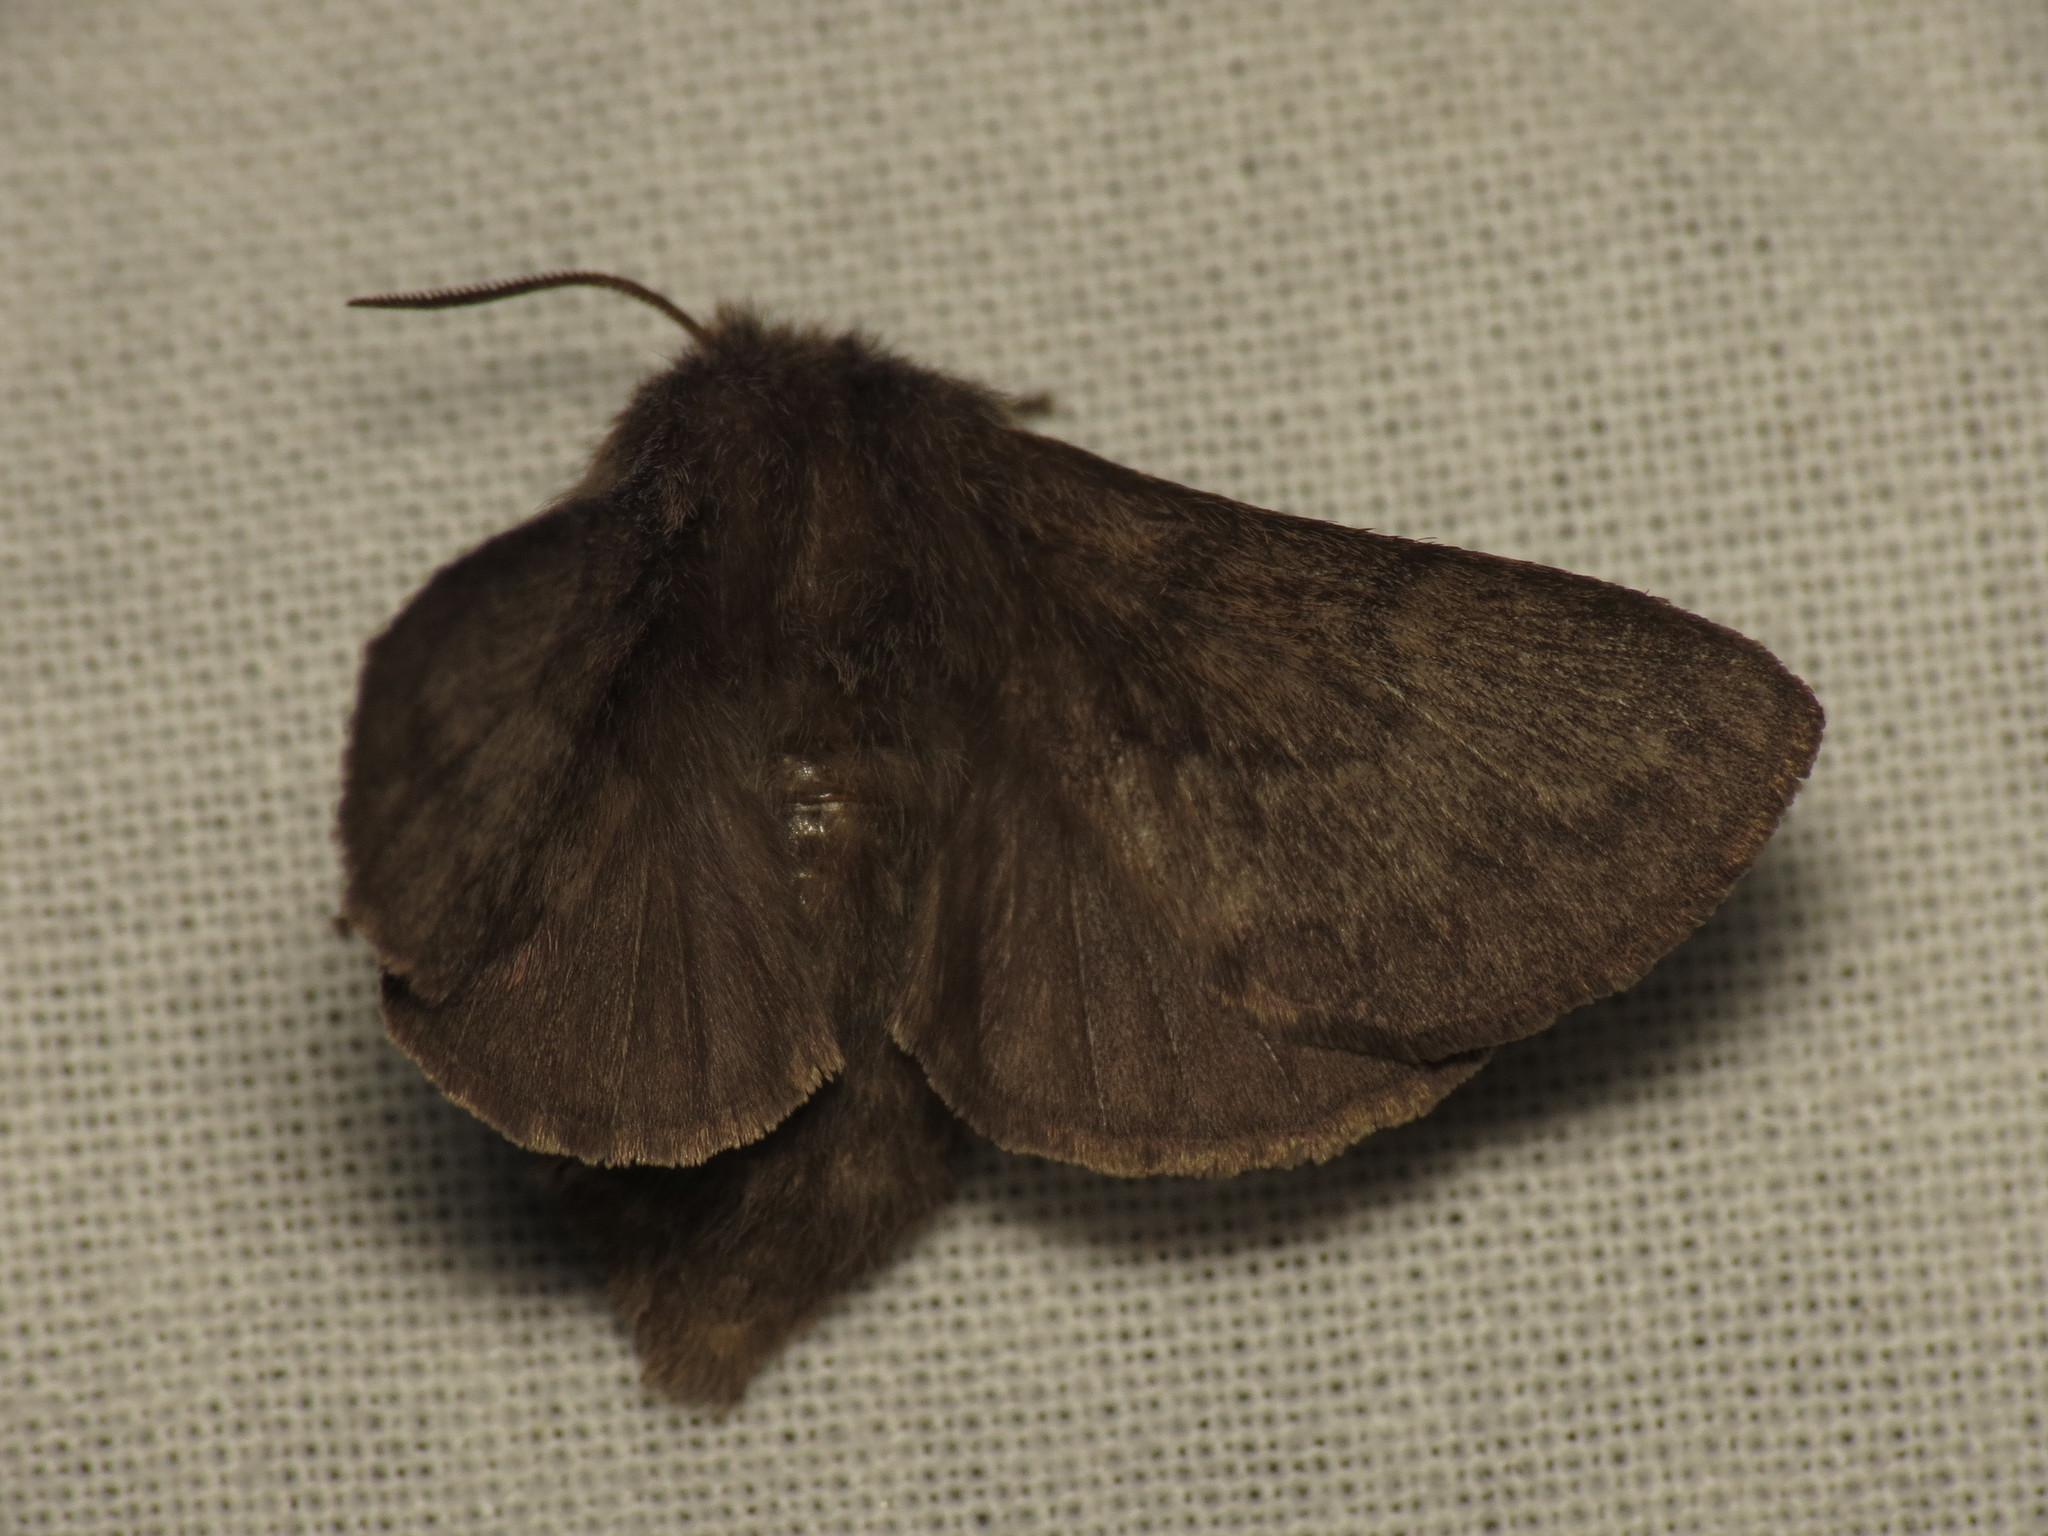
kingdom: Animalia
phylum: Arthropoda
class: Insecta
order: Lepidoptera
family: Lasiocampidae
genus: Pernattia
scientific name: Pernattia pusilla
